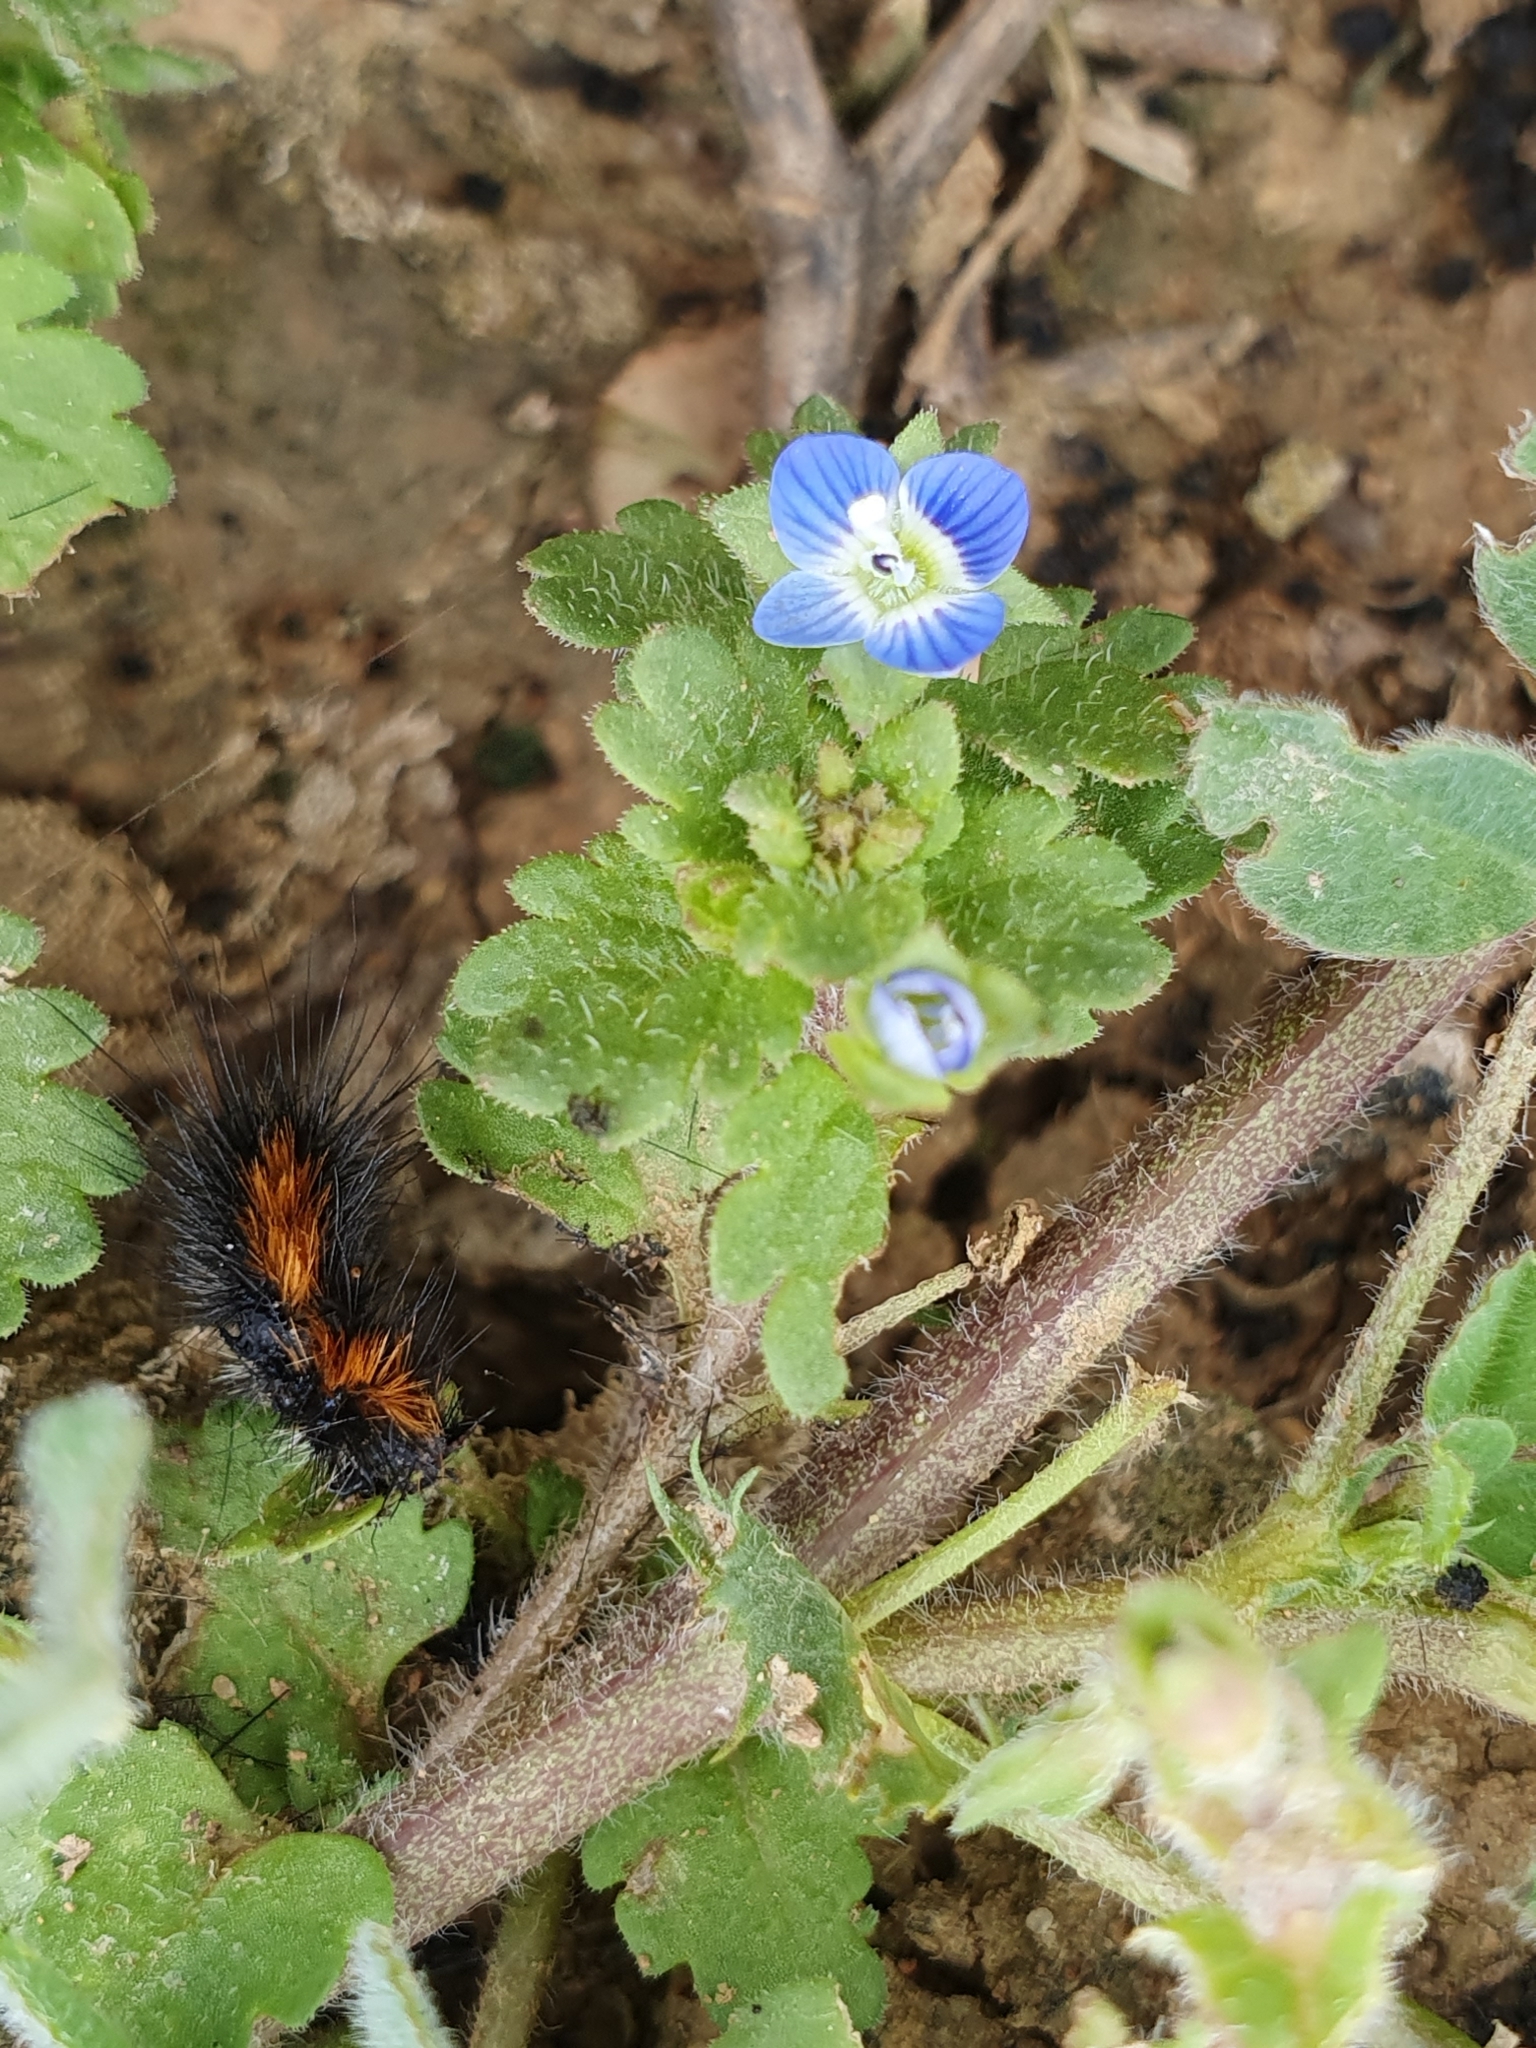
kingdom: Plantae
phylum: Tracheophyta
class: Magnoliopsida
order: Lamiales
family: Plantaginaceae
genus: Veronica
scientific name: Veronica polita
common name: Grey field-speedwell
